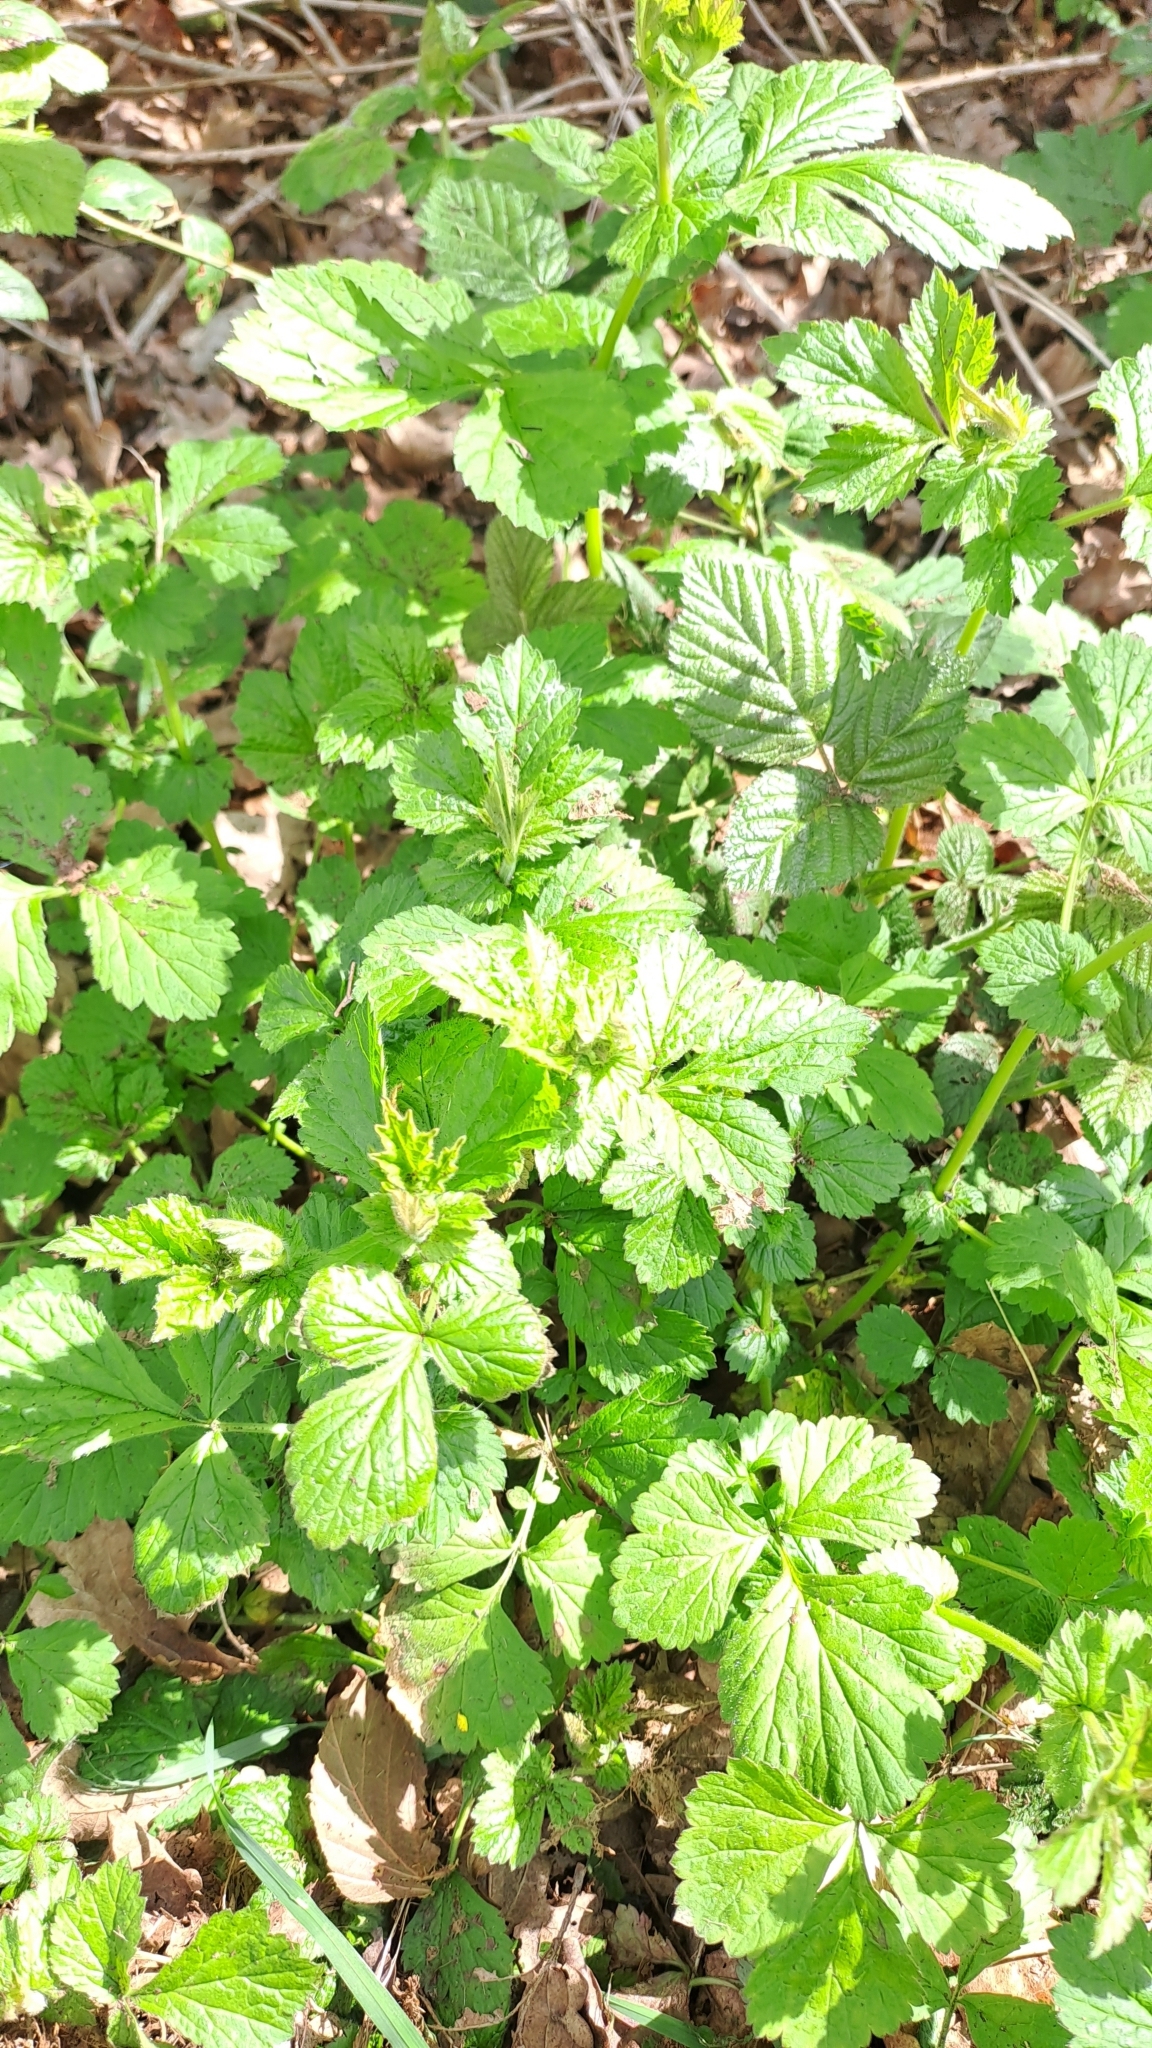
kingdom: Plantae
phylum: Tracheophyta
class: Magnoliopsida
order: Rosales
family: Rosaceae
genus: Geum
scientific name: Geum urbanum
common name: Wood avens
